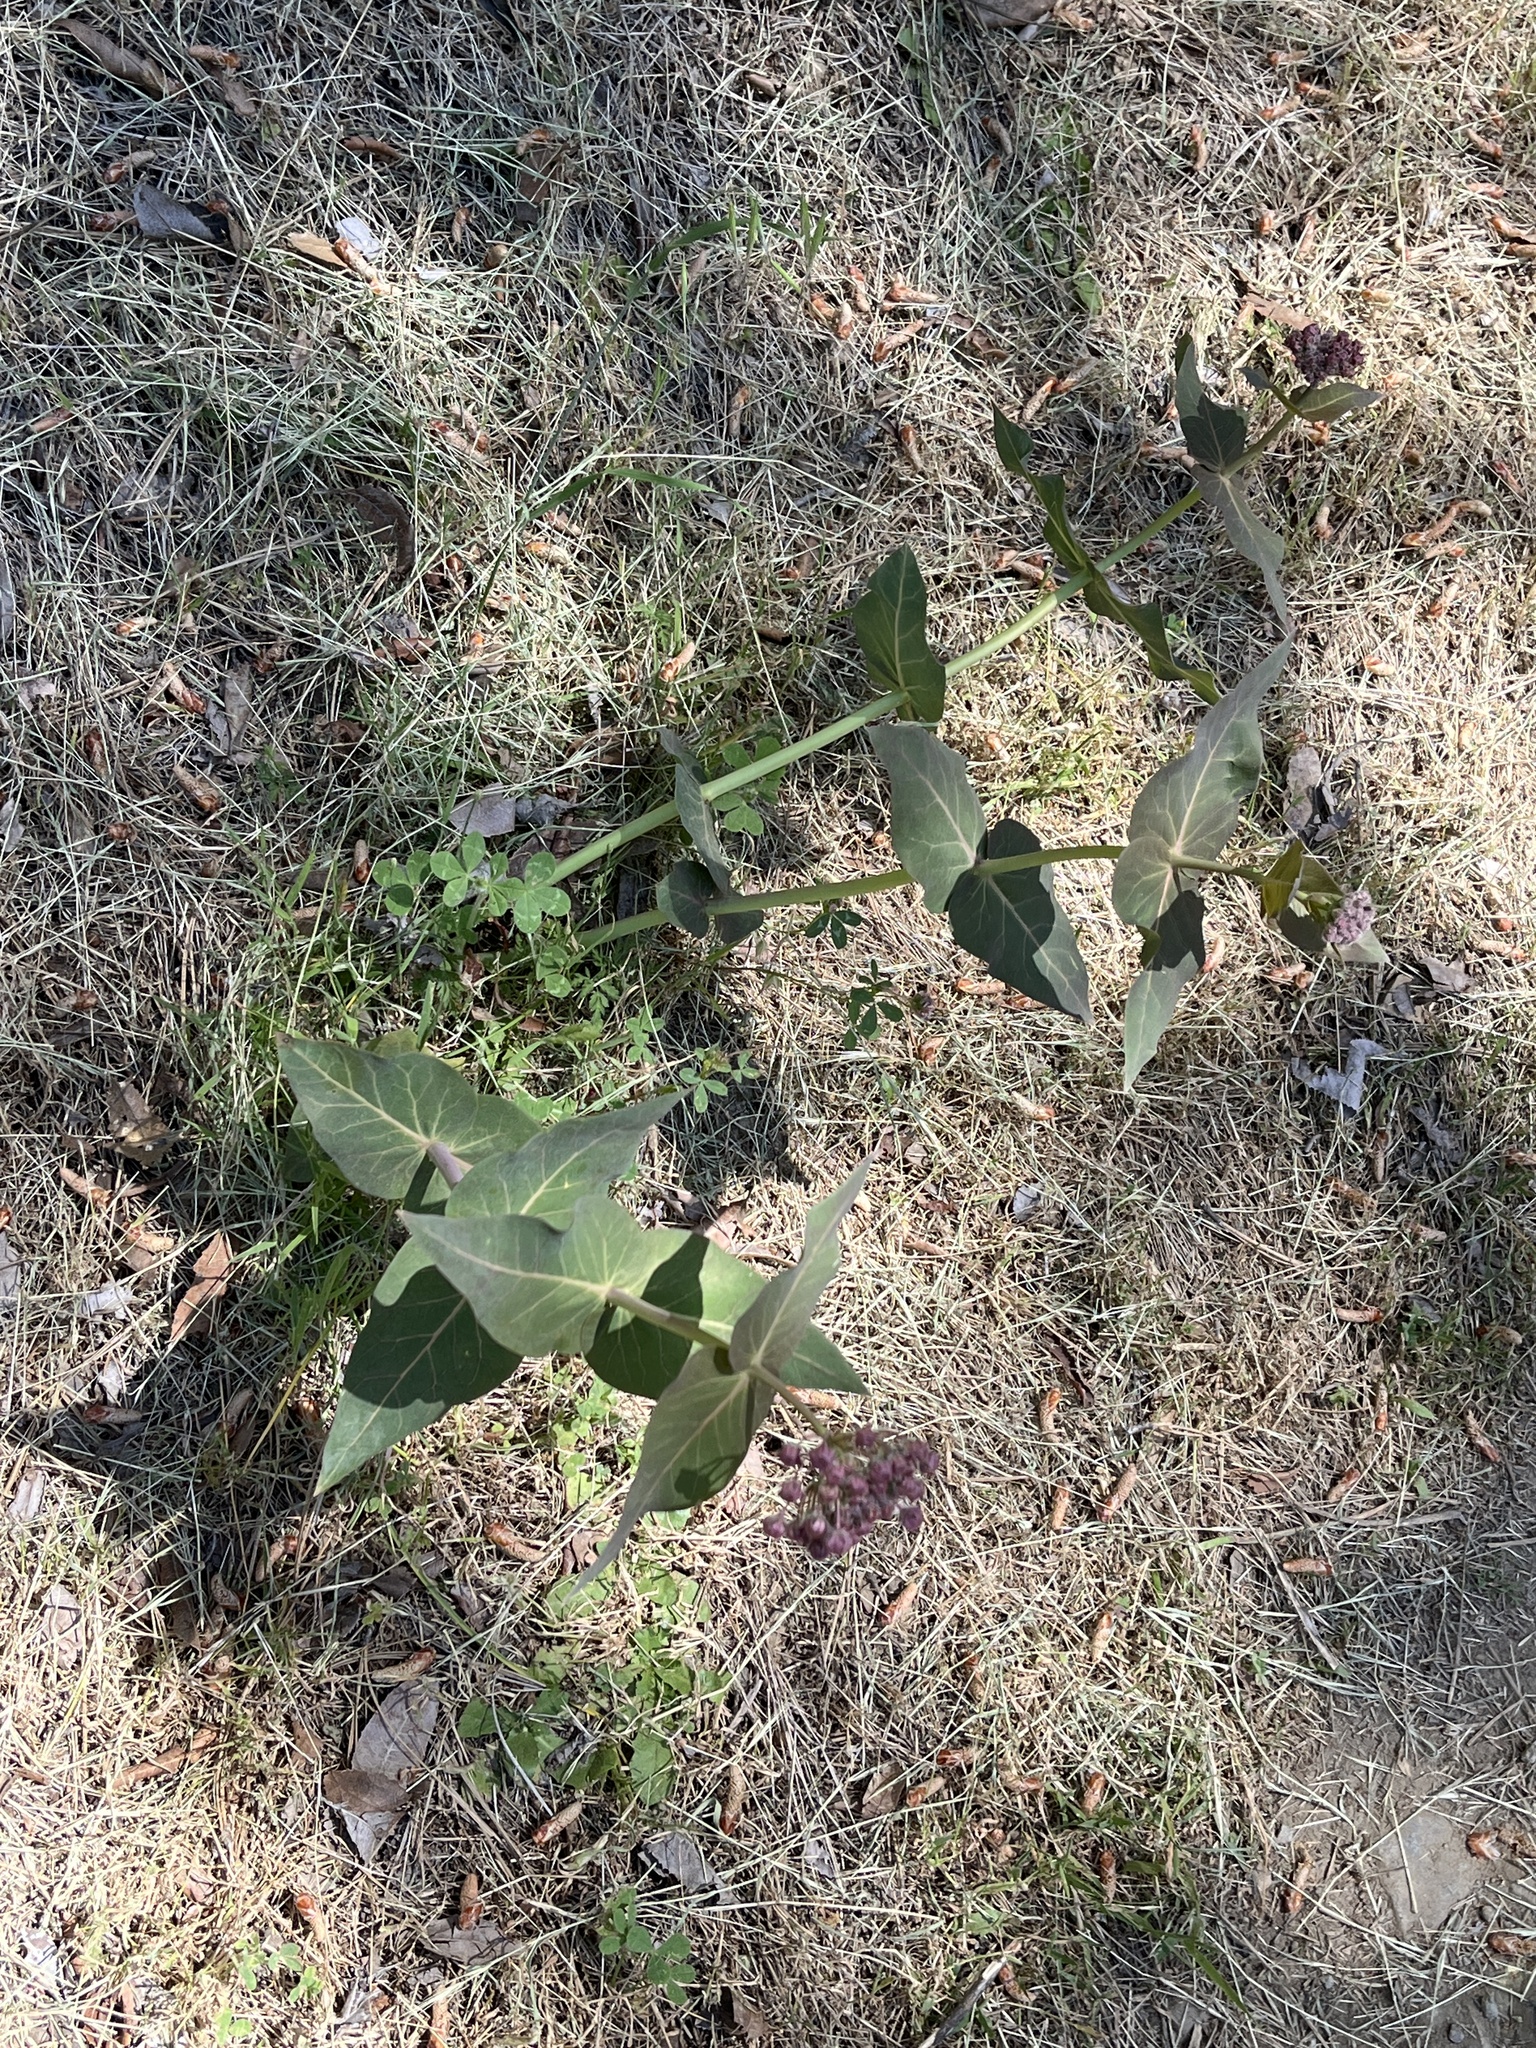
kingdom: Plantae
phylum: Tracheophyta
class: Magnoliopsida
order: Gentianales
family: Apocynaceae
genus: Asclepias
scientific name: Asclepias cordifolia
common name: Purple milkweed
